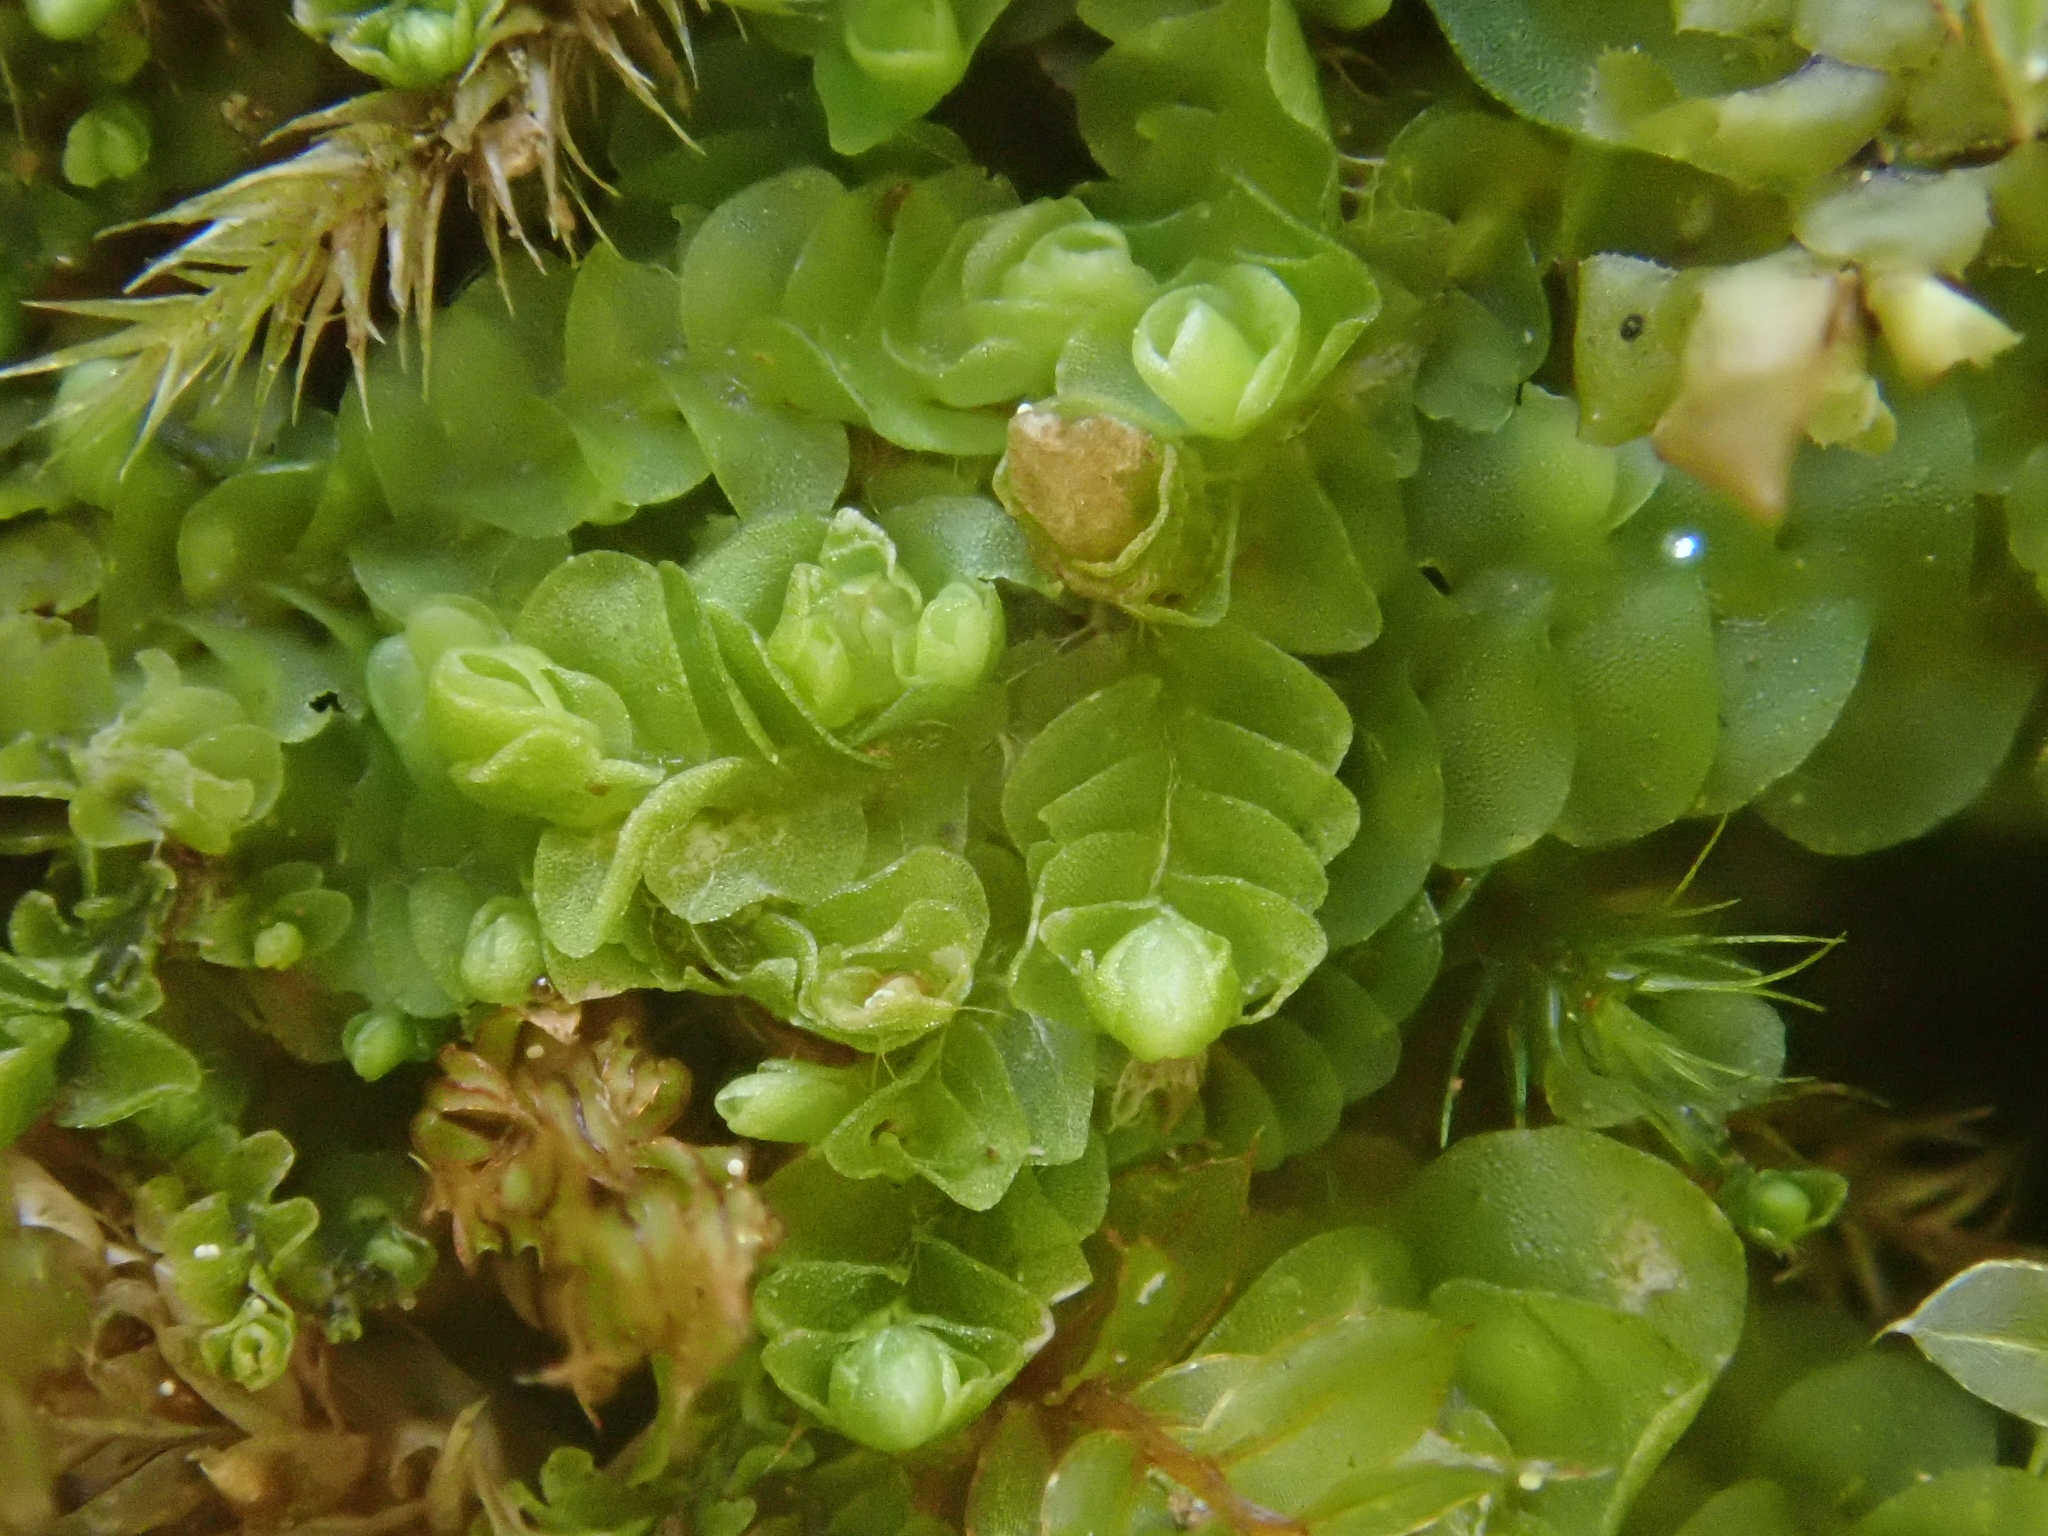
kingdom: Plantae
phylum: Marchantiophyta
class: Jungermanniopsida
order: Jungermanniales
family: Solenostomataceae
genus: Solenostoma
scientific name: Solenostoma hyalinum
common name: Transparent flapwort
